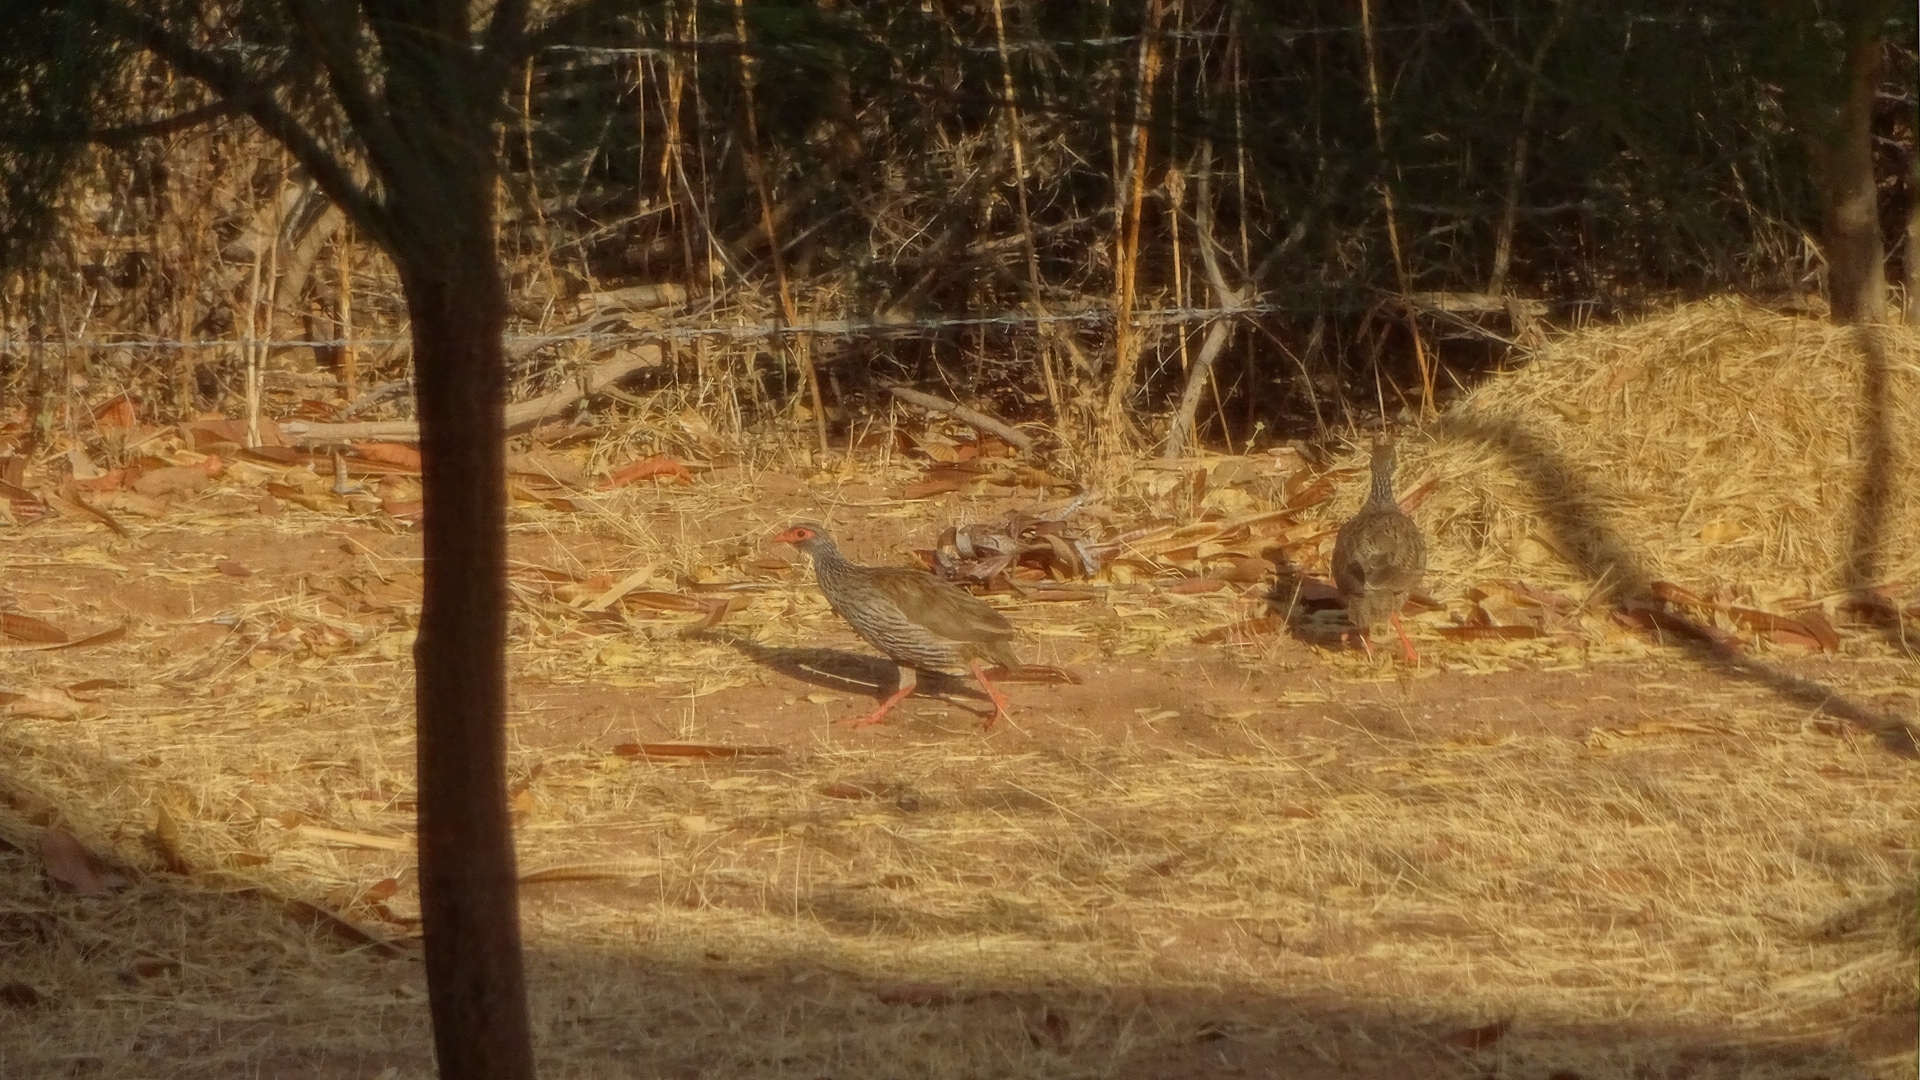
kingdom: Animalia
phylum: Chordata
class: Aves
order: Galliformes
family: Phasianidae
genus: Pternistis
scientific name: Pternistis afer
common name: Red-necked spurfowl
